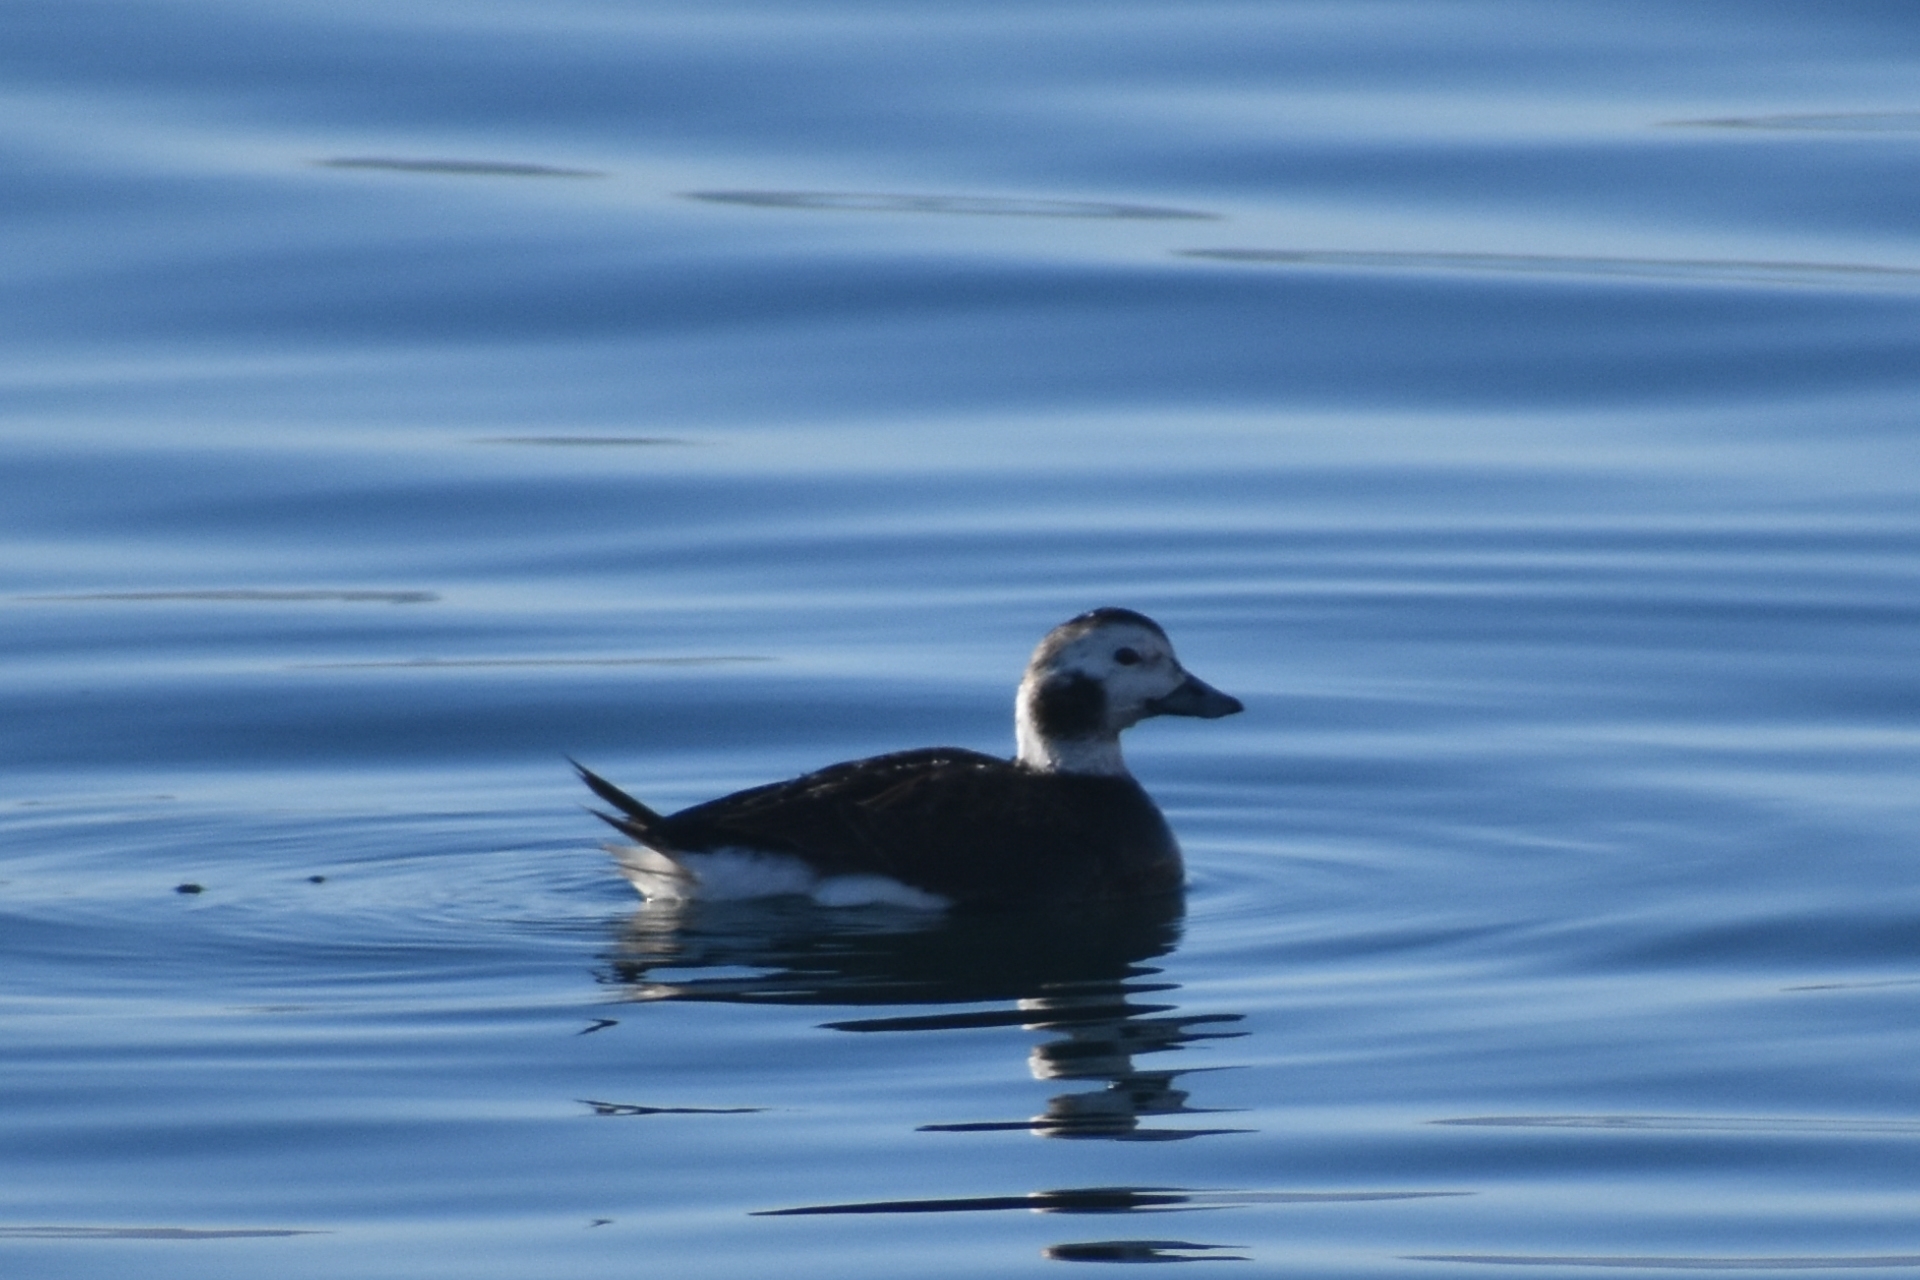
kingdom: Animalia
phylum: Chordata
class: Aves
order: Anseriformes
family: Anatidae
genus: Clangula
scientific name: Clangula hyemalis
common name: Long-tailed duck
